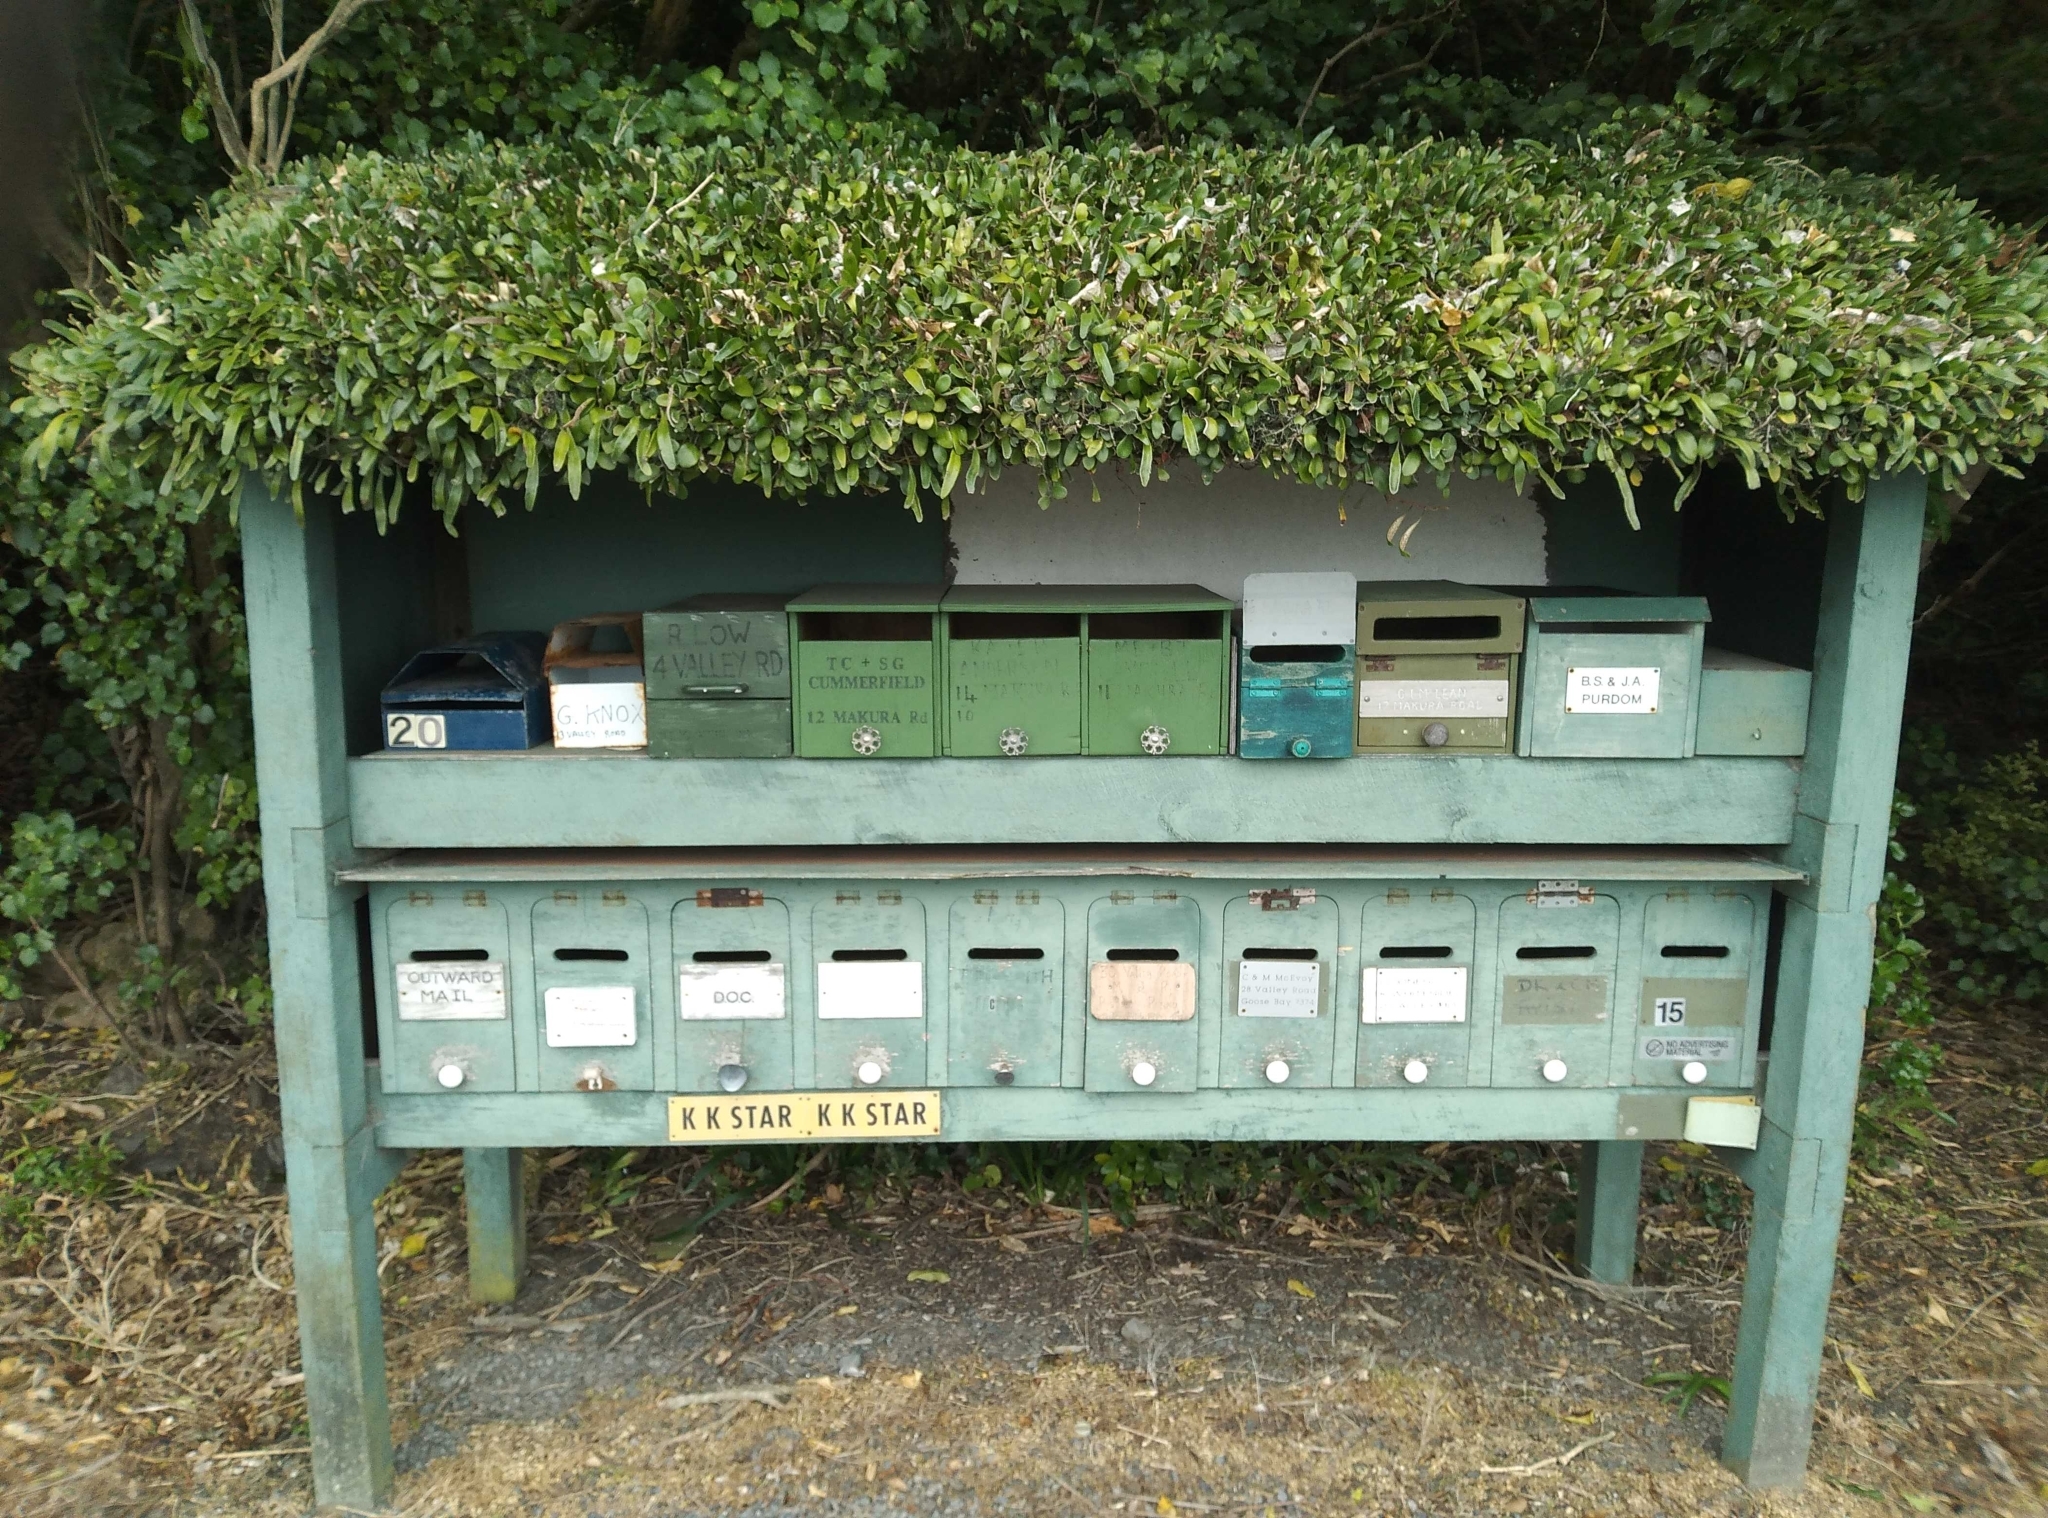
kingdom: Plantae
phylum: Tracheophyta
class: Polypodiopsida
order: Polypodiales
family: Polypodiaceae
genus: Pyrrosia
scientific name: Pyrrosia eleagnifolia
